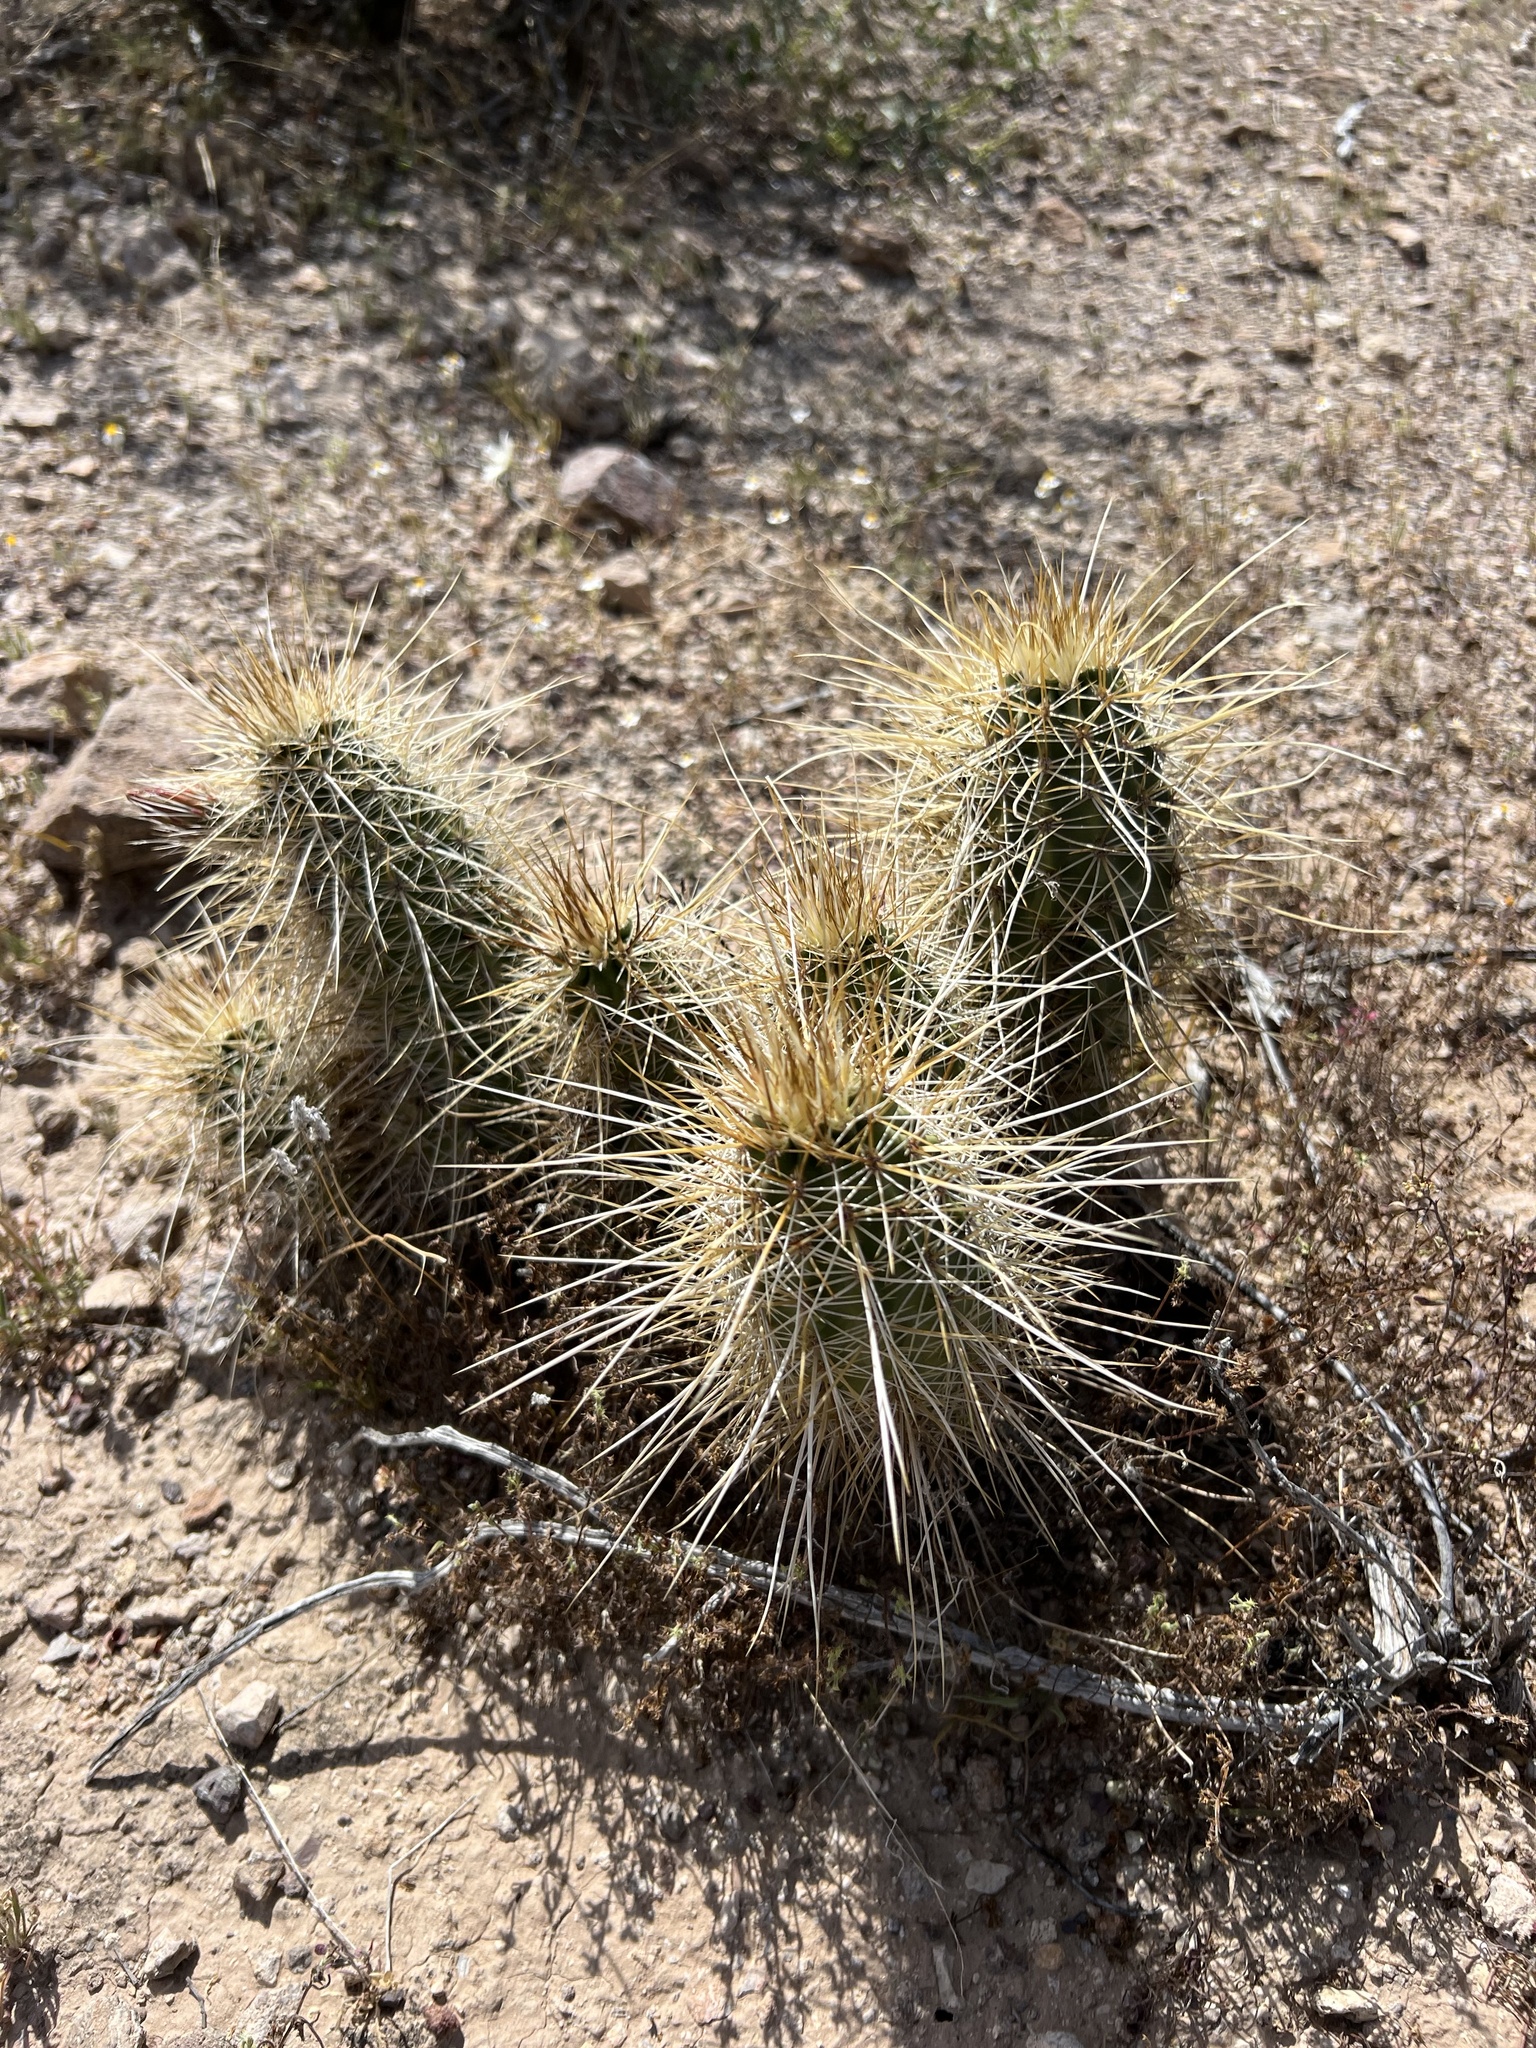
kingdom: Plantae
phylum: Tracheophyta
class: Magnoliopsida
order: Caryophyllales
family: Cactaceae
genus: Echinocereus
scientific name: Echinocereus engelmannii
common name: Engelmann's hedgehog cactus
